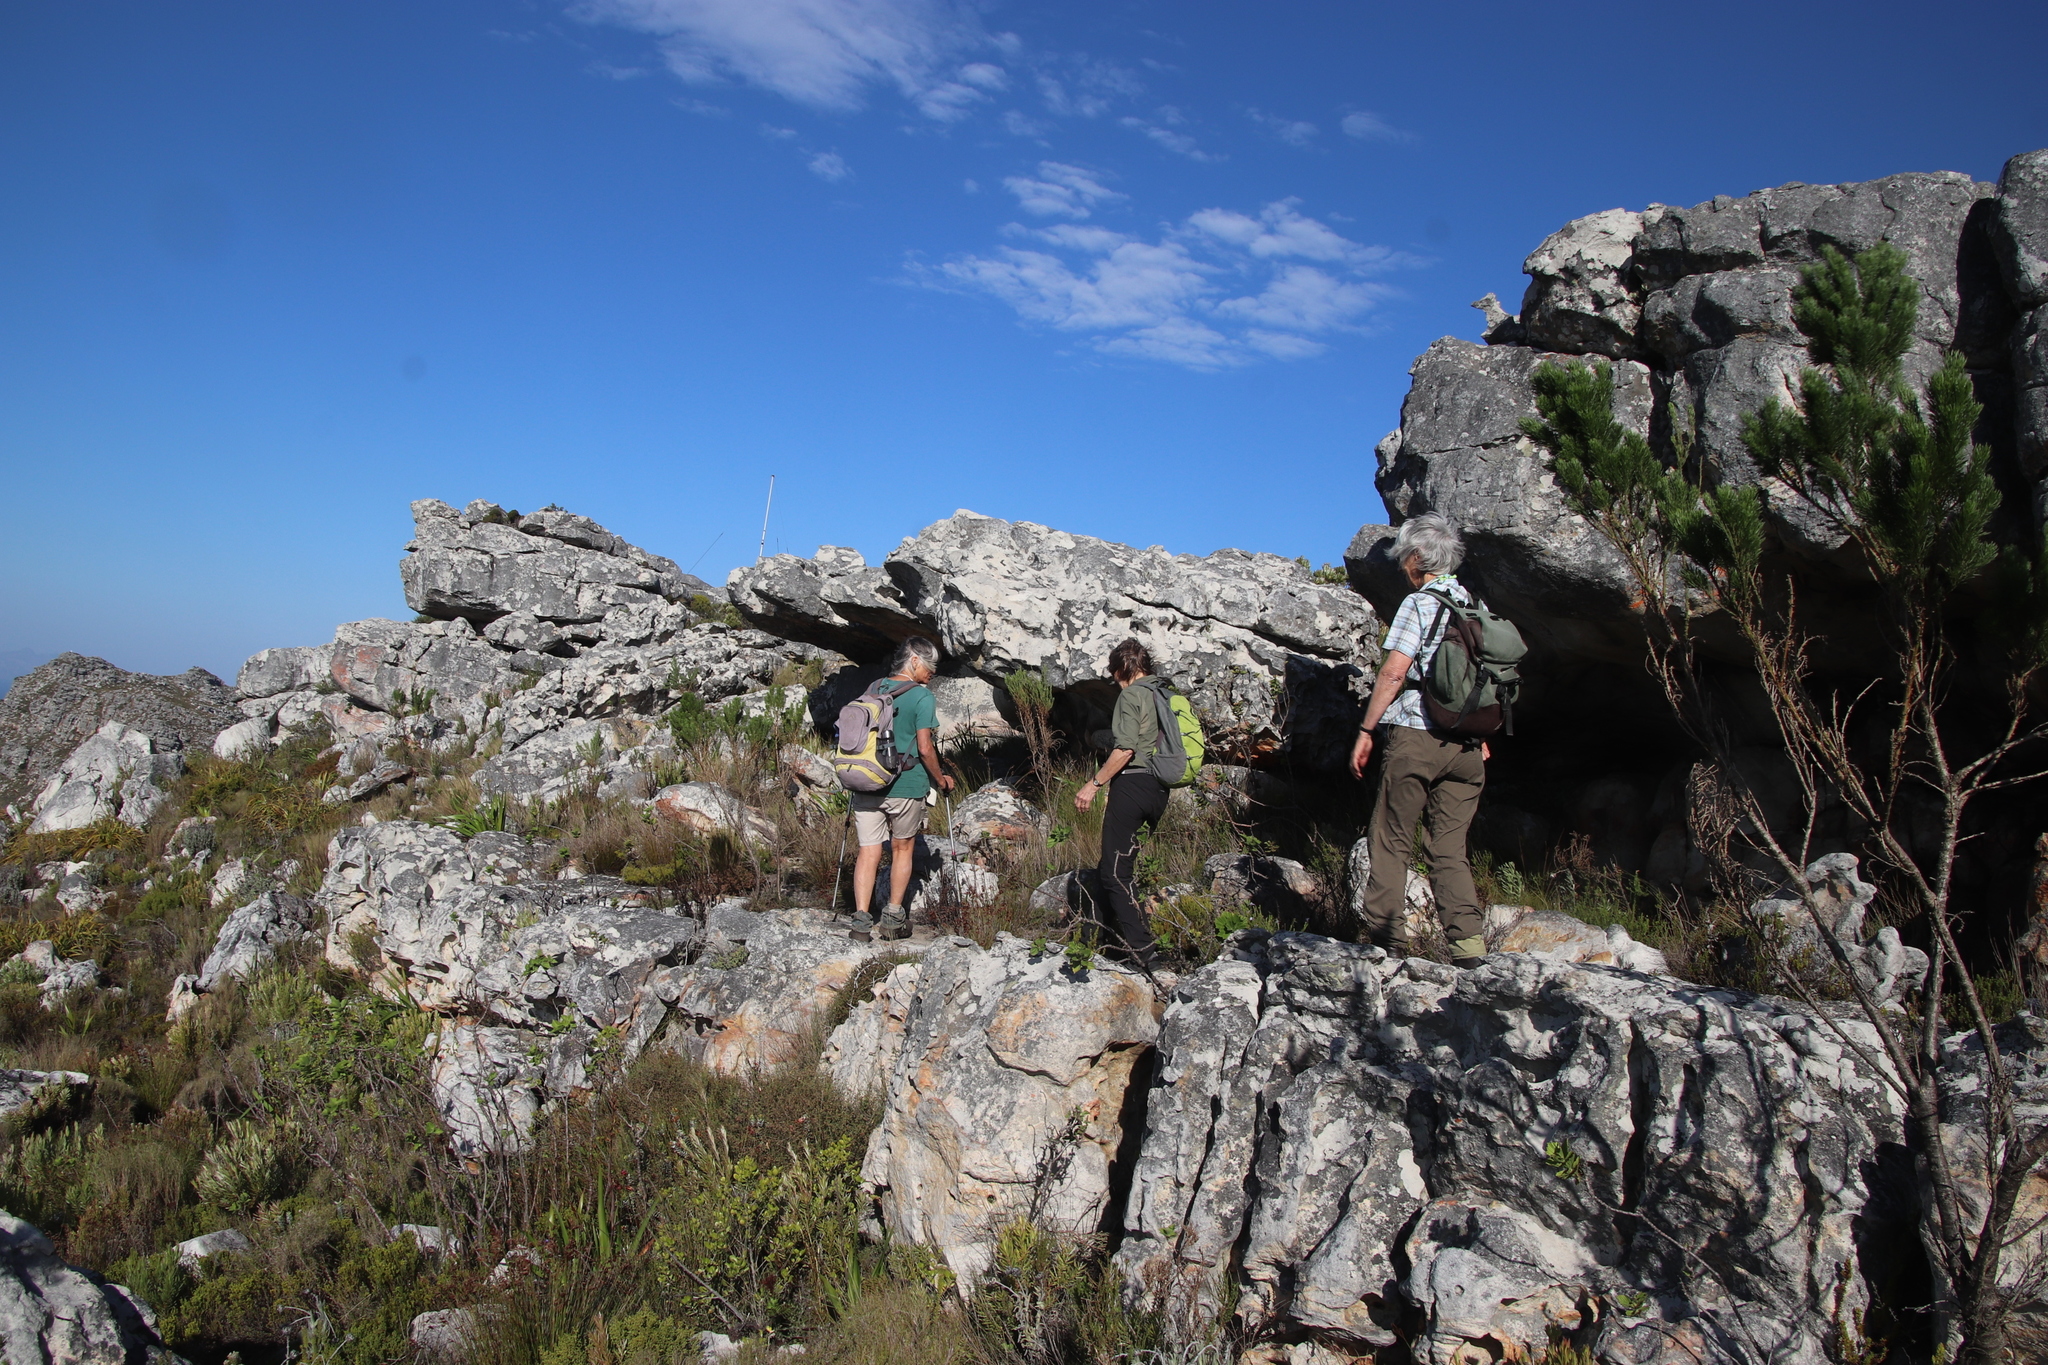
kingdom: Plantae
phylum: Tracheophyta
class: Magnoliopsida
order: Geraniales
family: Geraniaceae
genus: Pelargonium
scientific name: Pelargonium cucullatum
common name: Tree pelargonium
